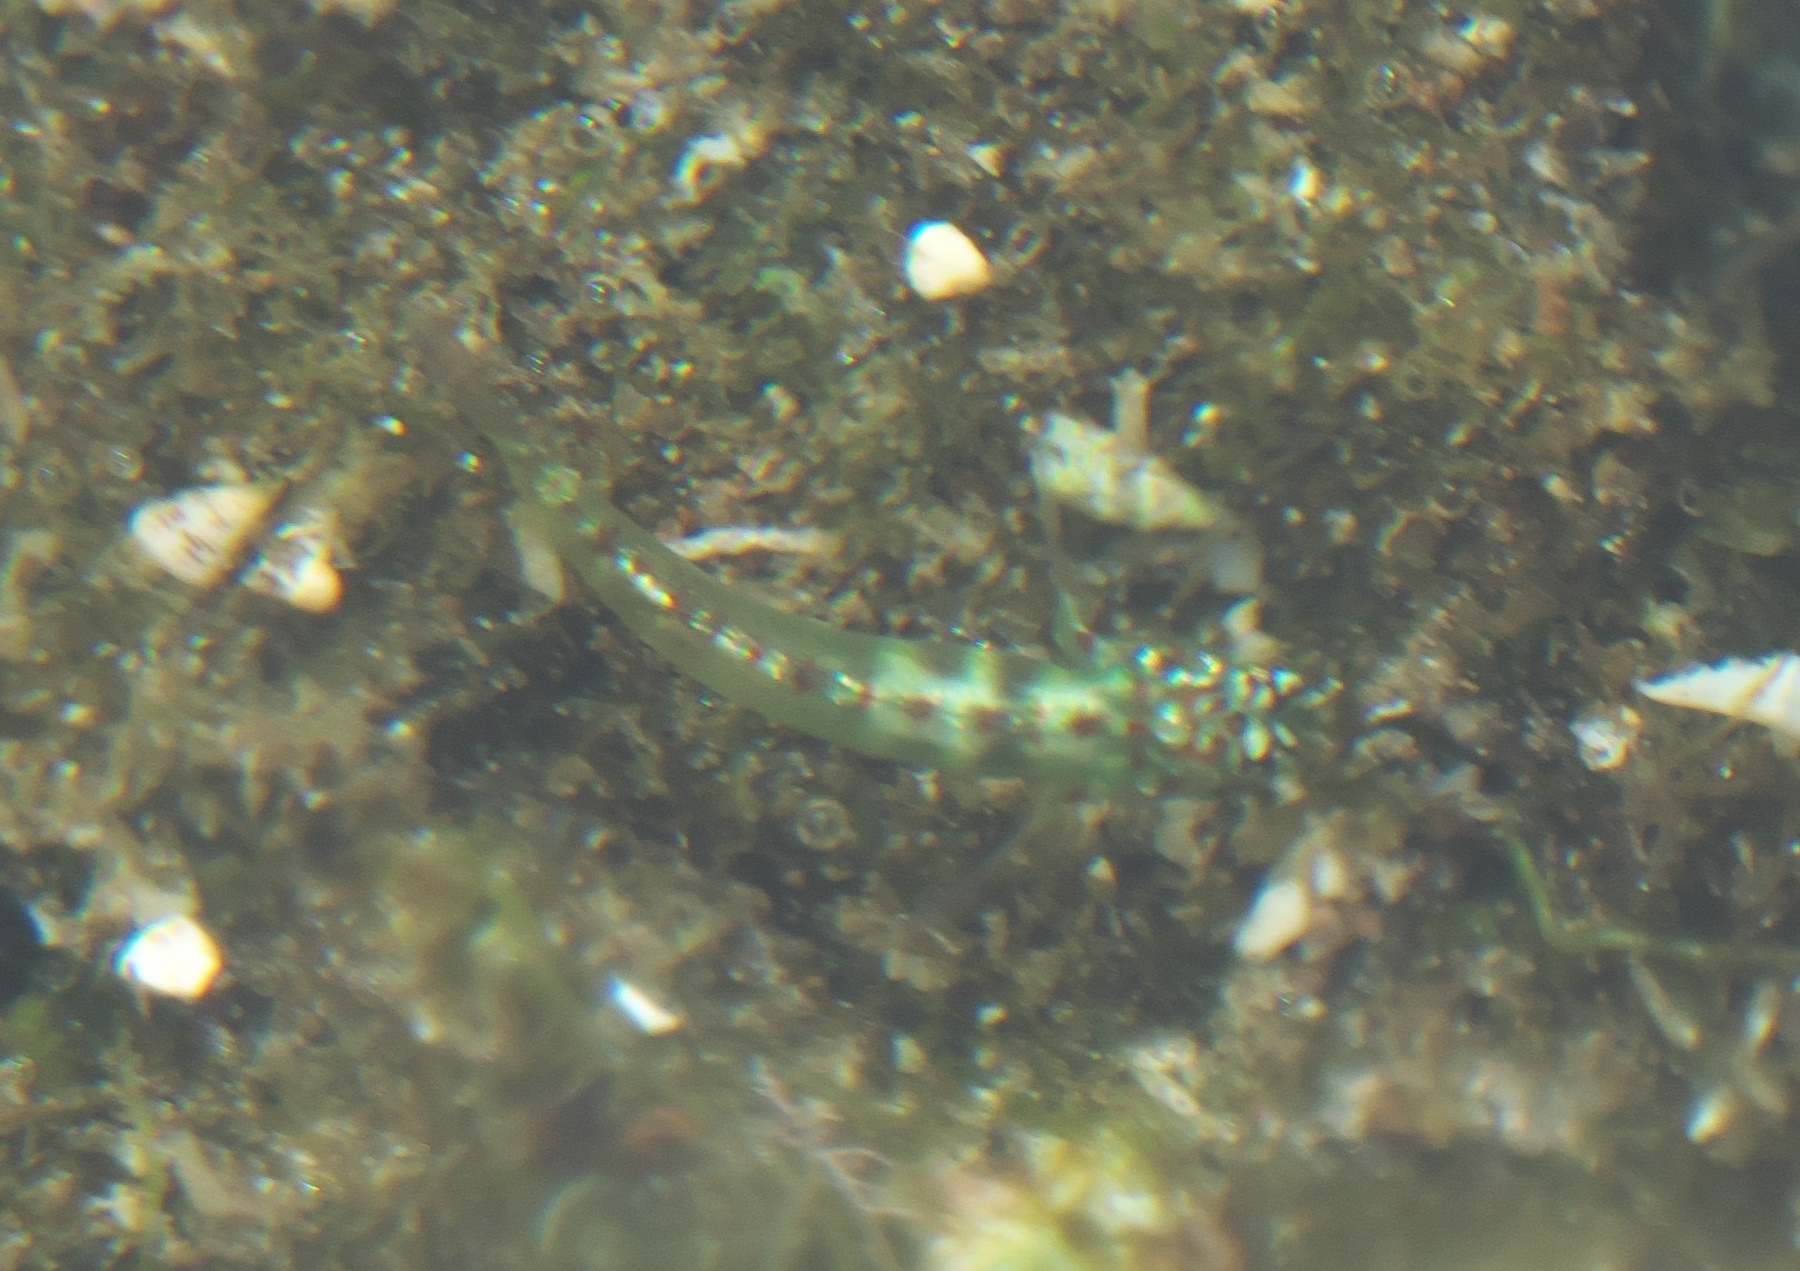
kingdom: Animalia
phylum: Chordata
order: Perciformes
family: Gobiidae
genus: Eviota
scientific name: Eviota smaragdus
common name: Smaragdus pygmy goby
